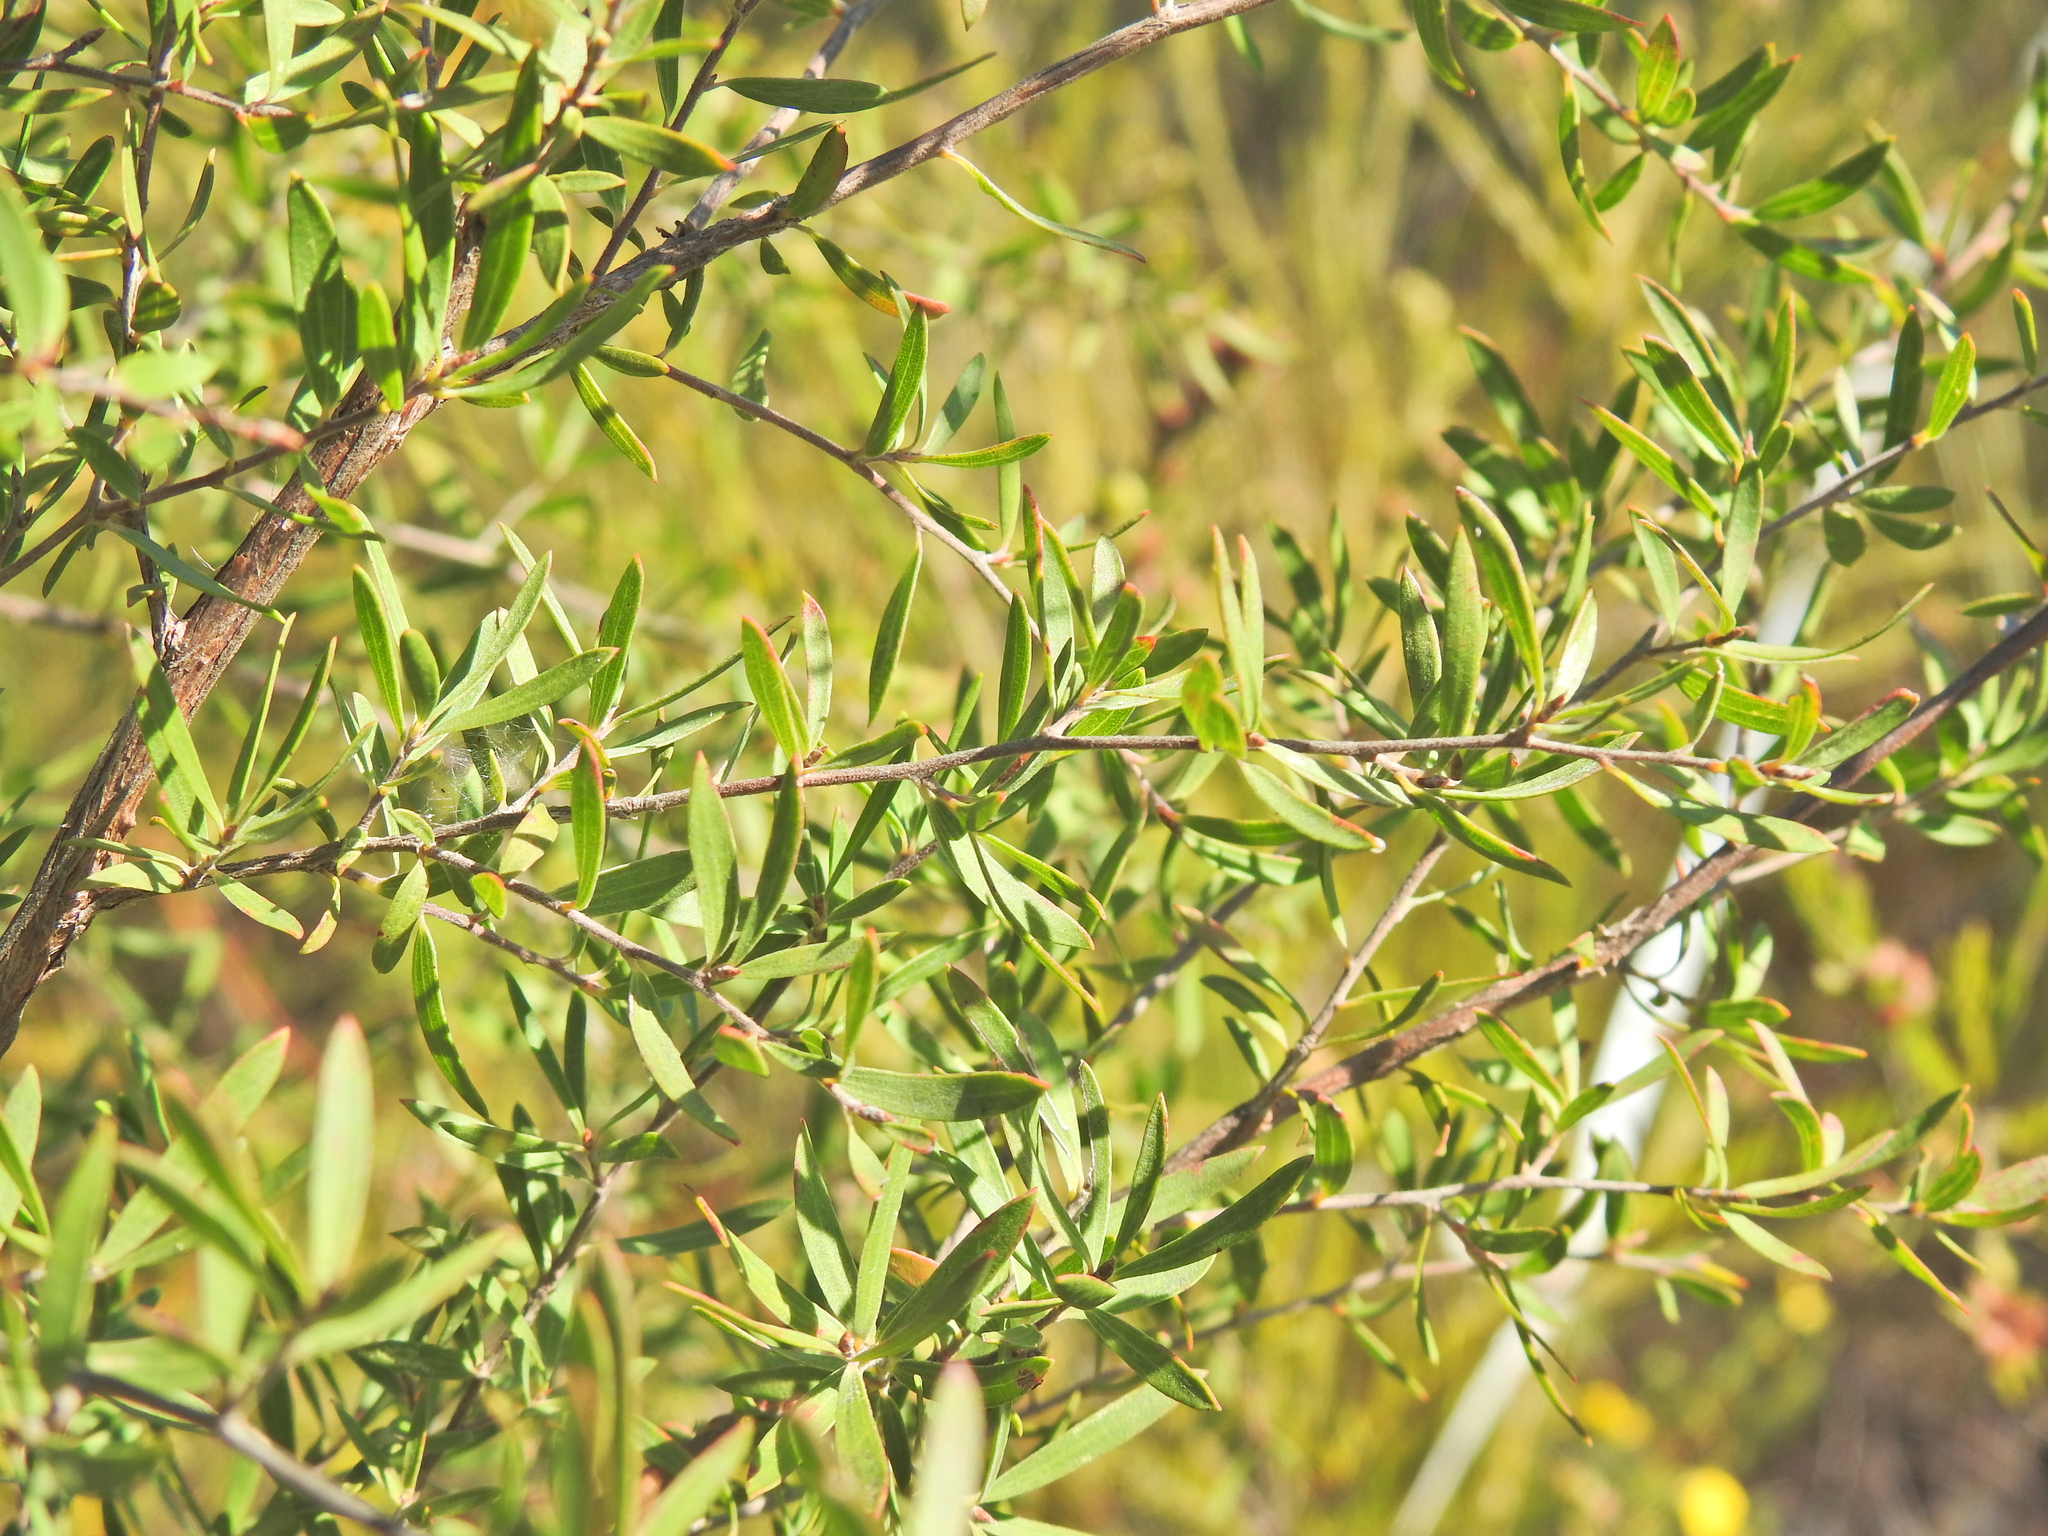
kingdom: Plantae
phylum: Tracheophyta
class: Magnoliopsida
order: Myrtales
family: Myrtaceae
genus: Leptospermum
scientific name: Leptospermum trinervium
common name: Flaky-barked tea-tree
